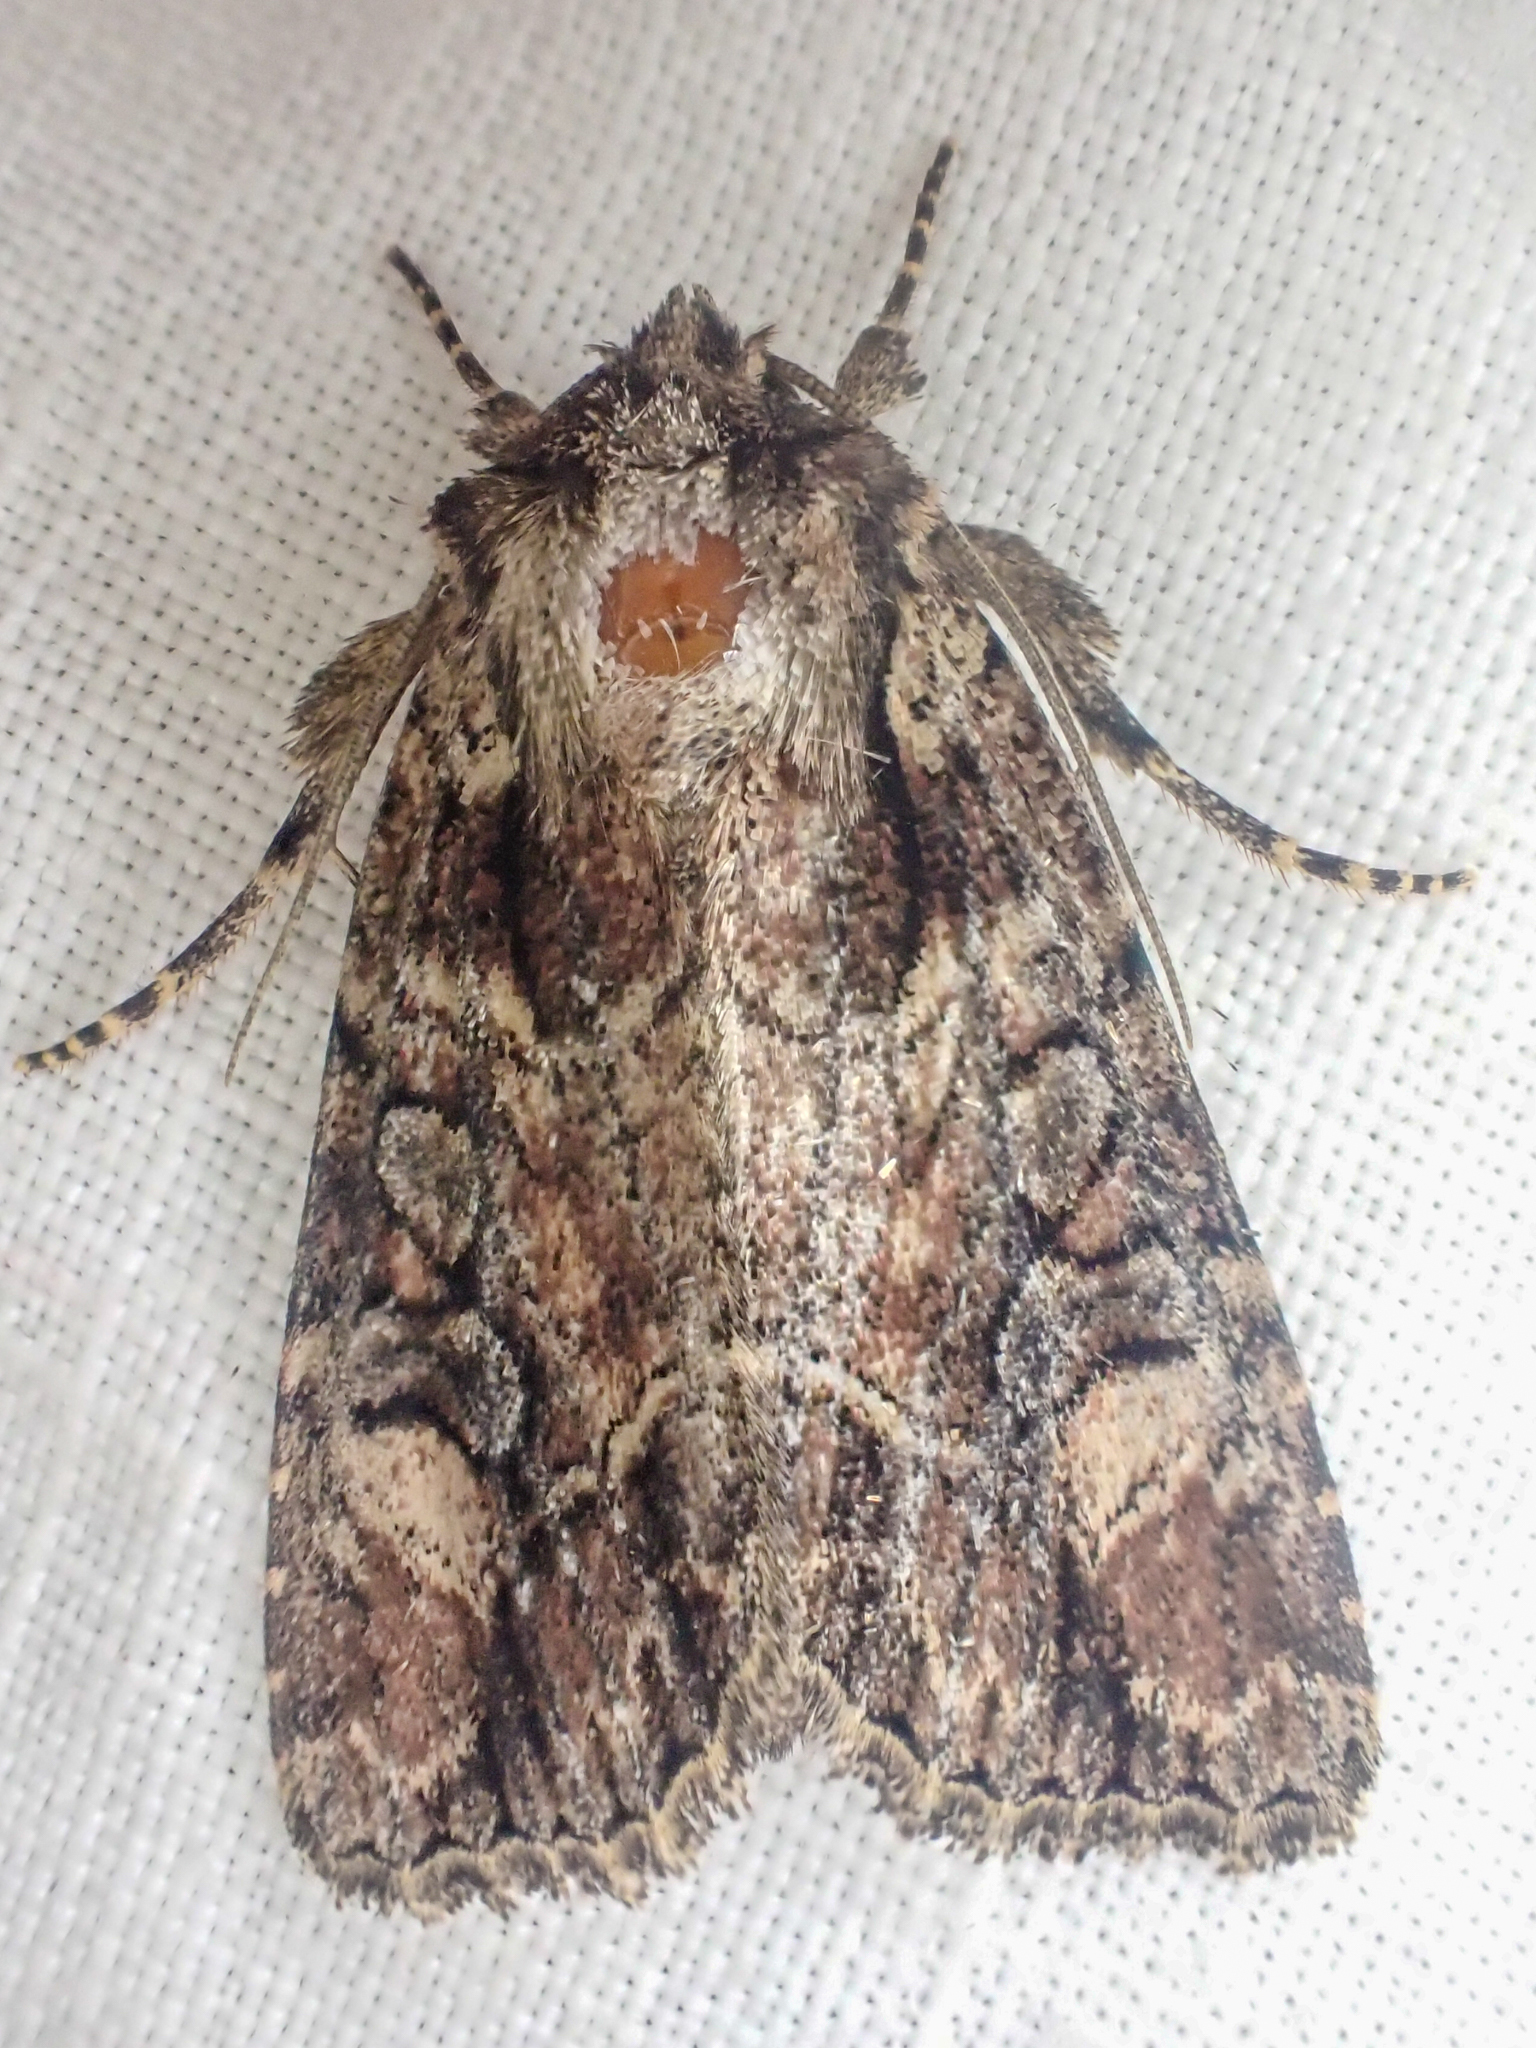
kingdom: Animalia
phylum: Arthropoda
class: Insecta
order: Lepidoptera
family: Noctuidae
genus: Aseptis
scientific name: Aseptis adnixa
